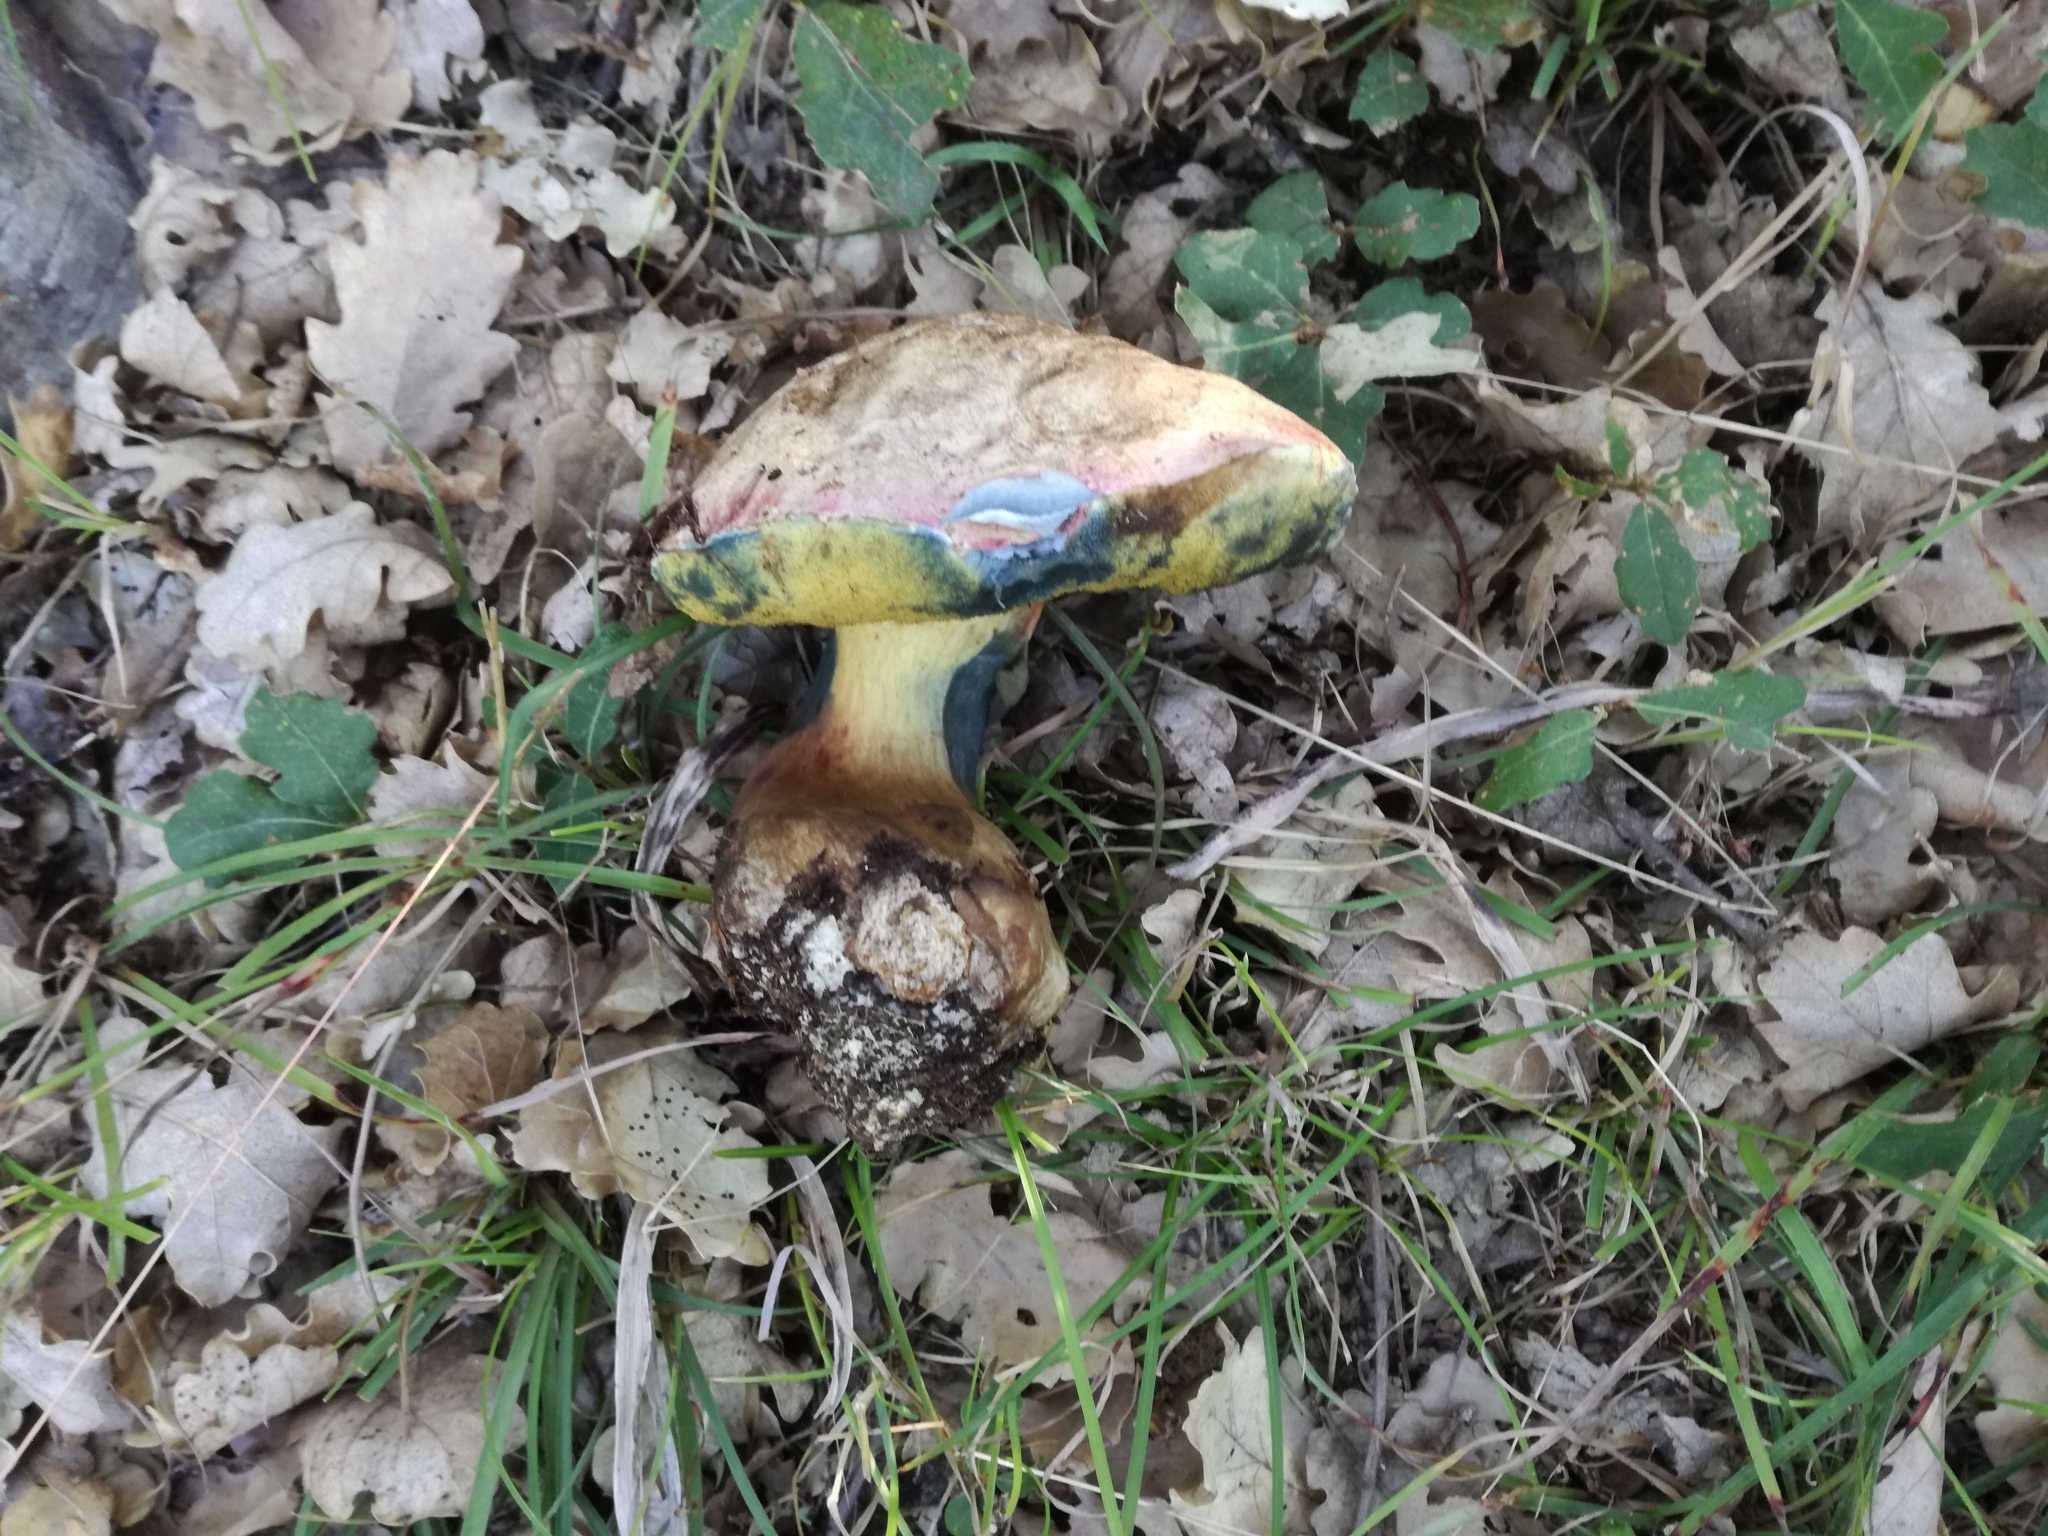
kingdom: Fungi
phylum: Basidiomycota
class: Agaricomycetes
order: Boletales
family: Boletaceae
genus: Caloboletus
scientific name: Caloboletus kluzakii
